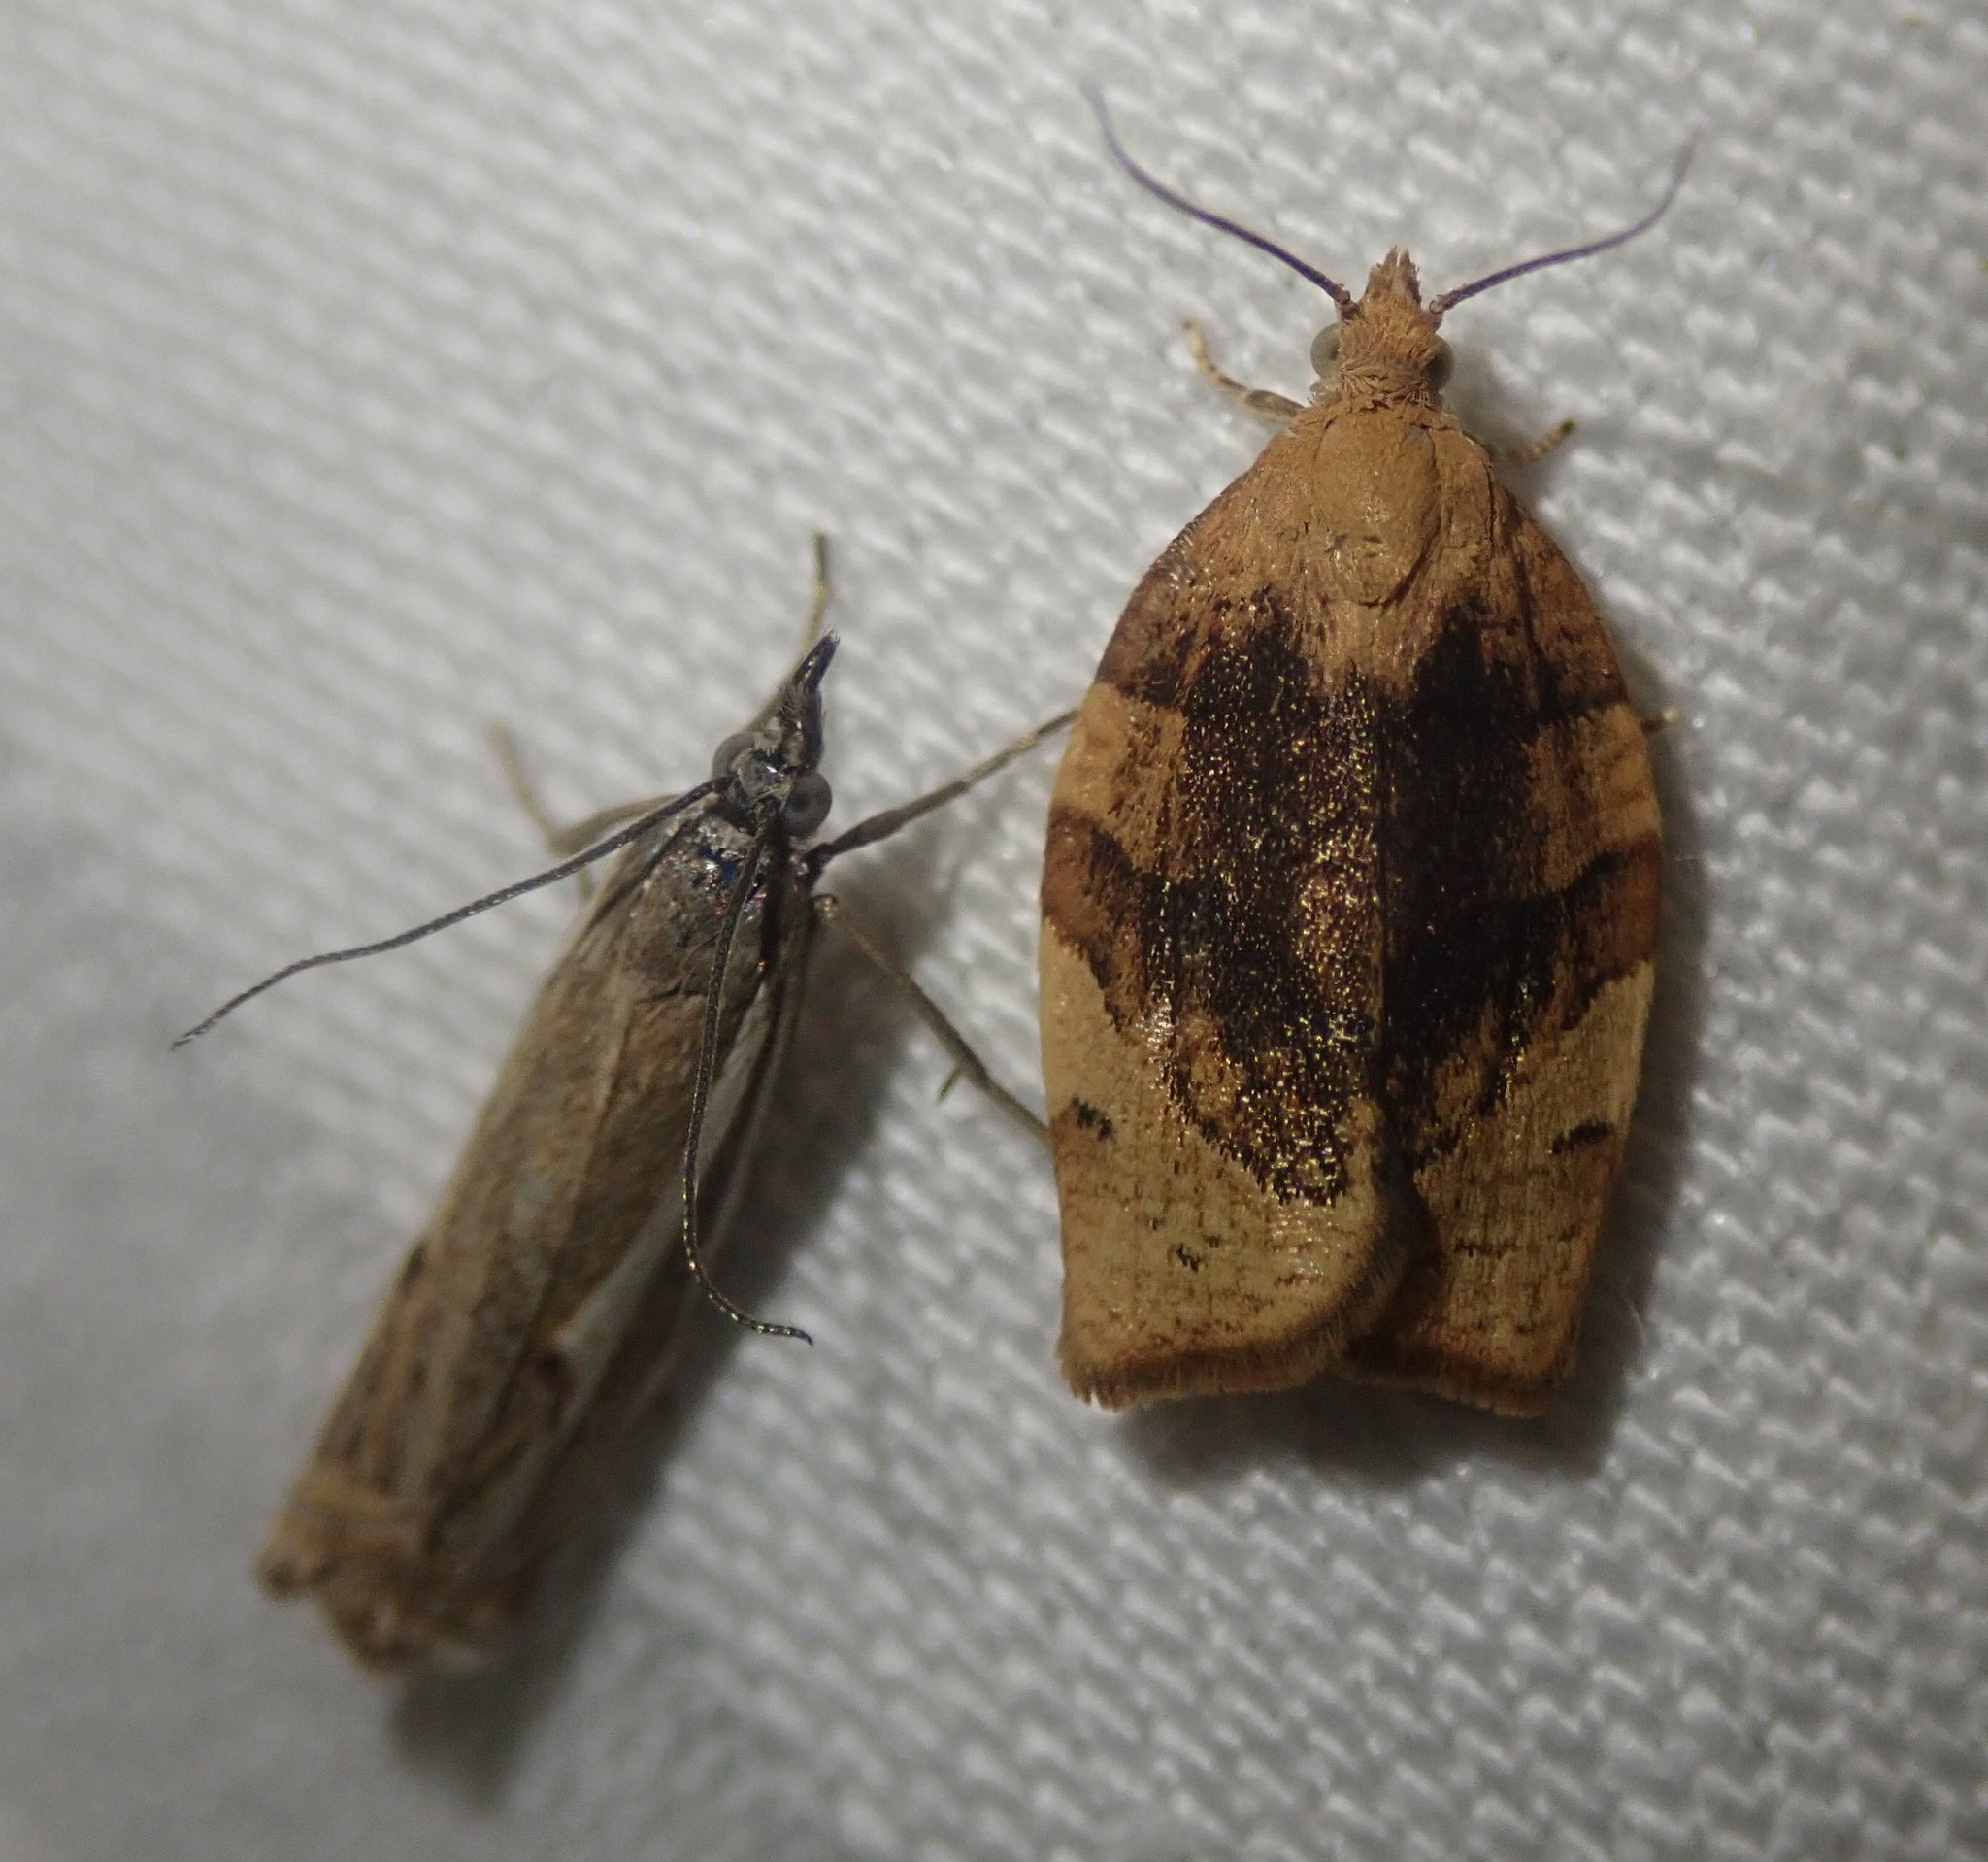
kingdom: Animalia
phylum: Arthropoda
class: Insecta
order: Lepidoptera
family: Tortricidae
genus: Pandemis
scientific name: Pandemis cerasana
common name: Barred fruit-tree tortrix
